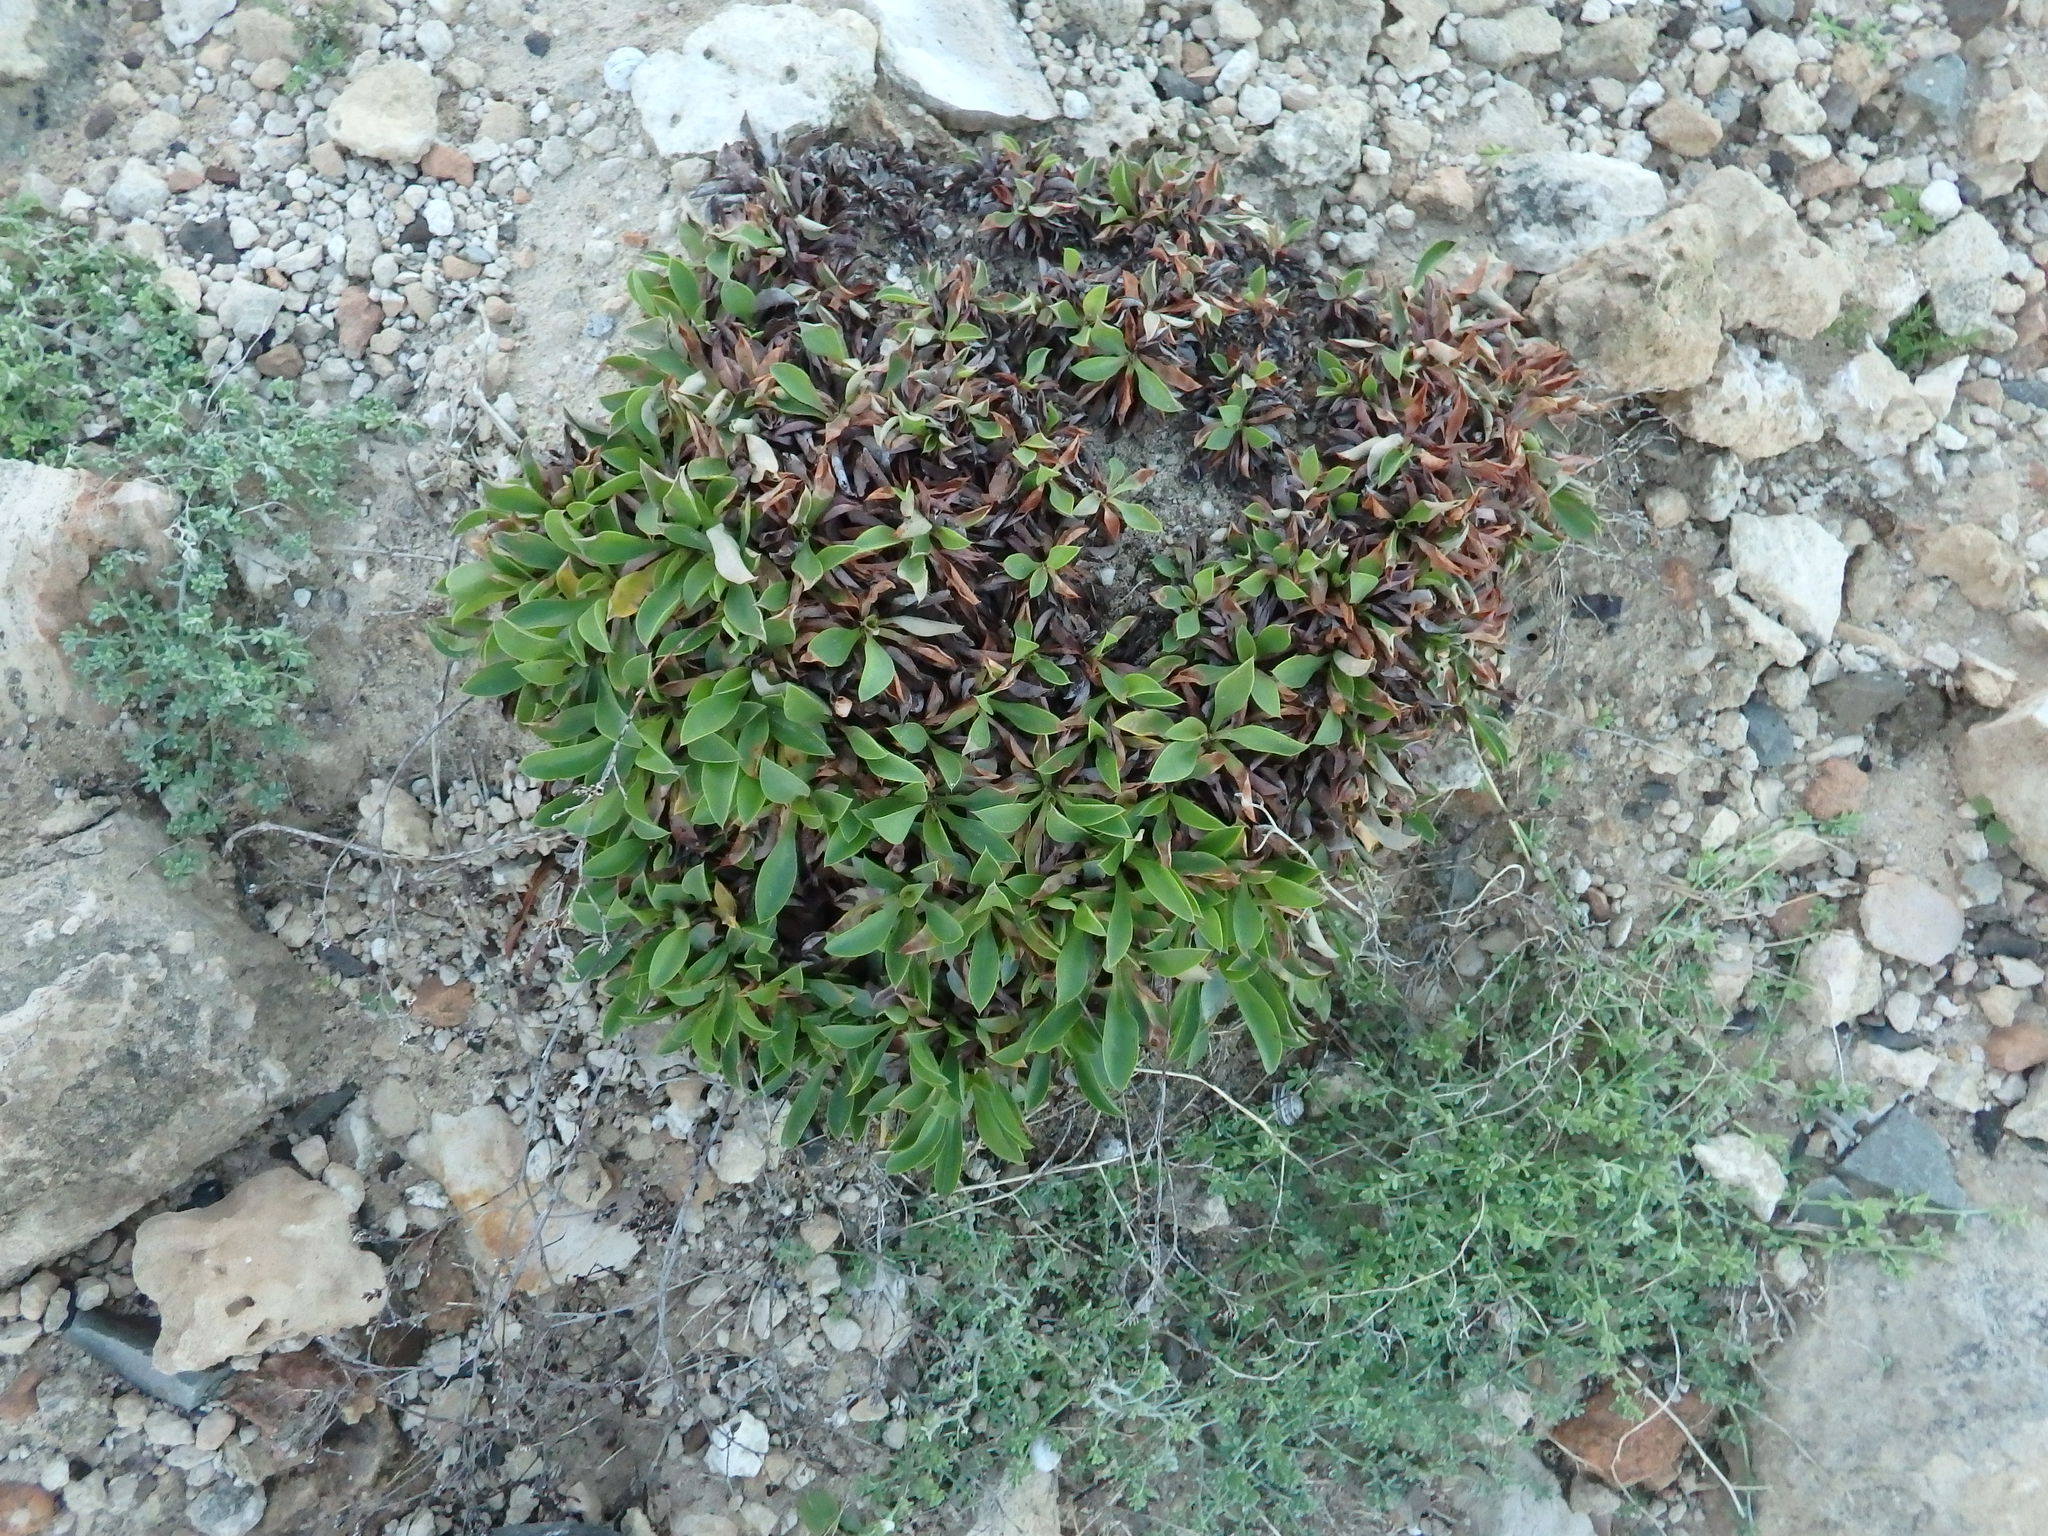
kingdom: Plantae
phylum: Tracheophyta
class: Magnoliopsida
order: Caryophyllales
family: Plumbaginaceae
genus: Limonium
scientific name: Limonium lowei
